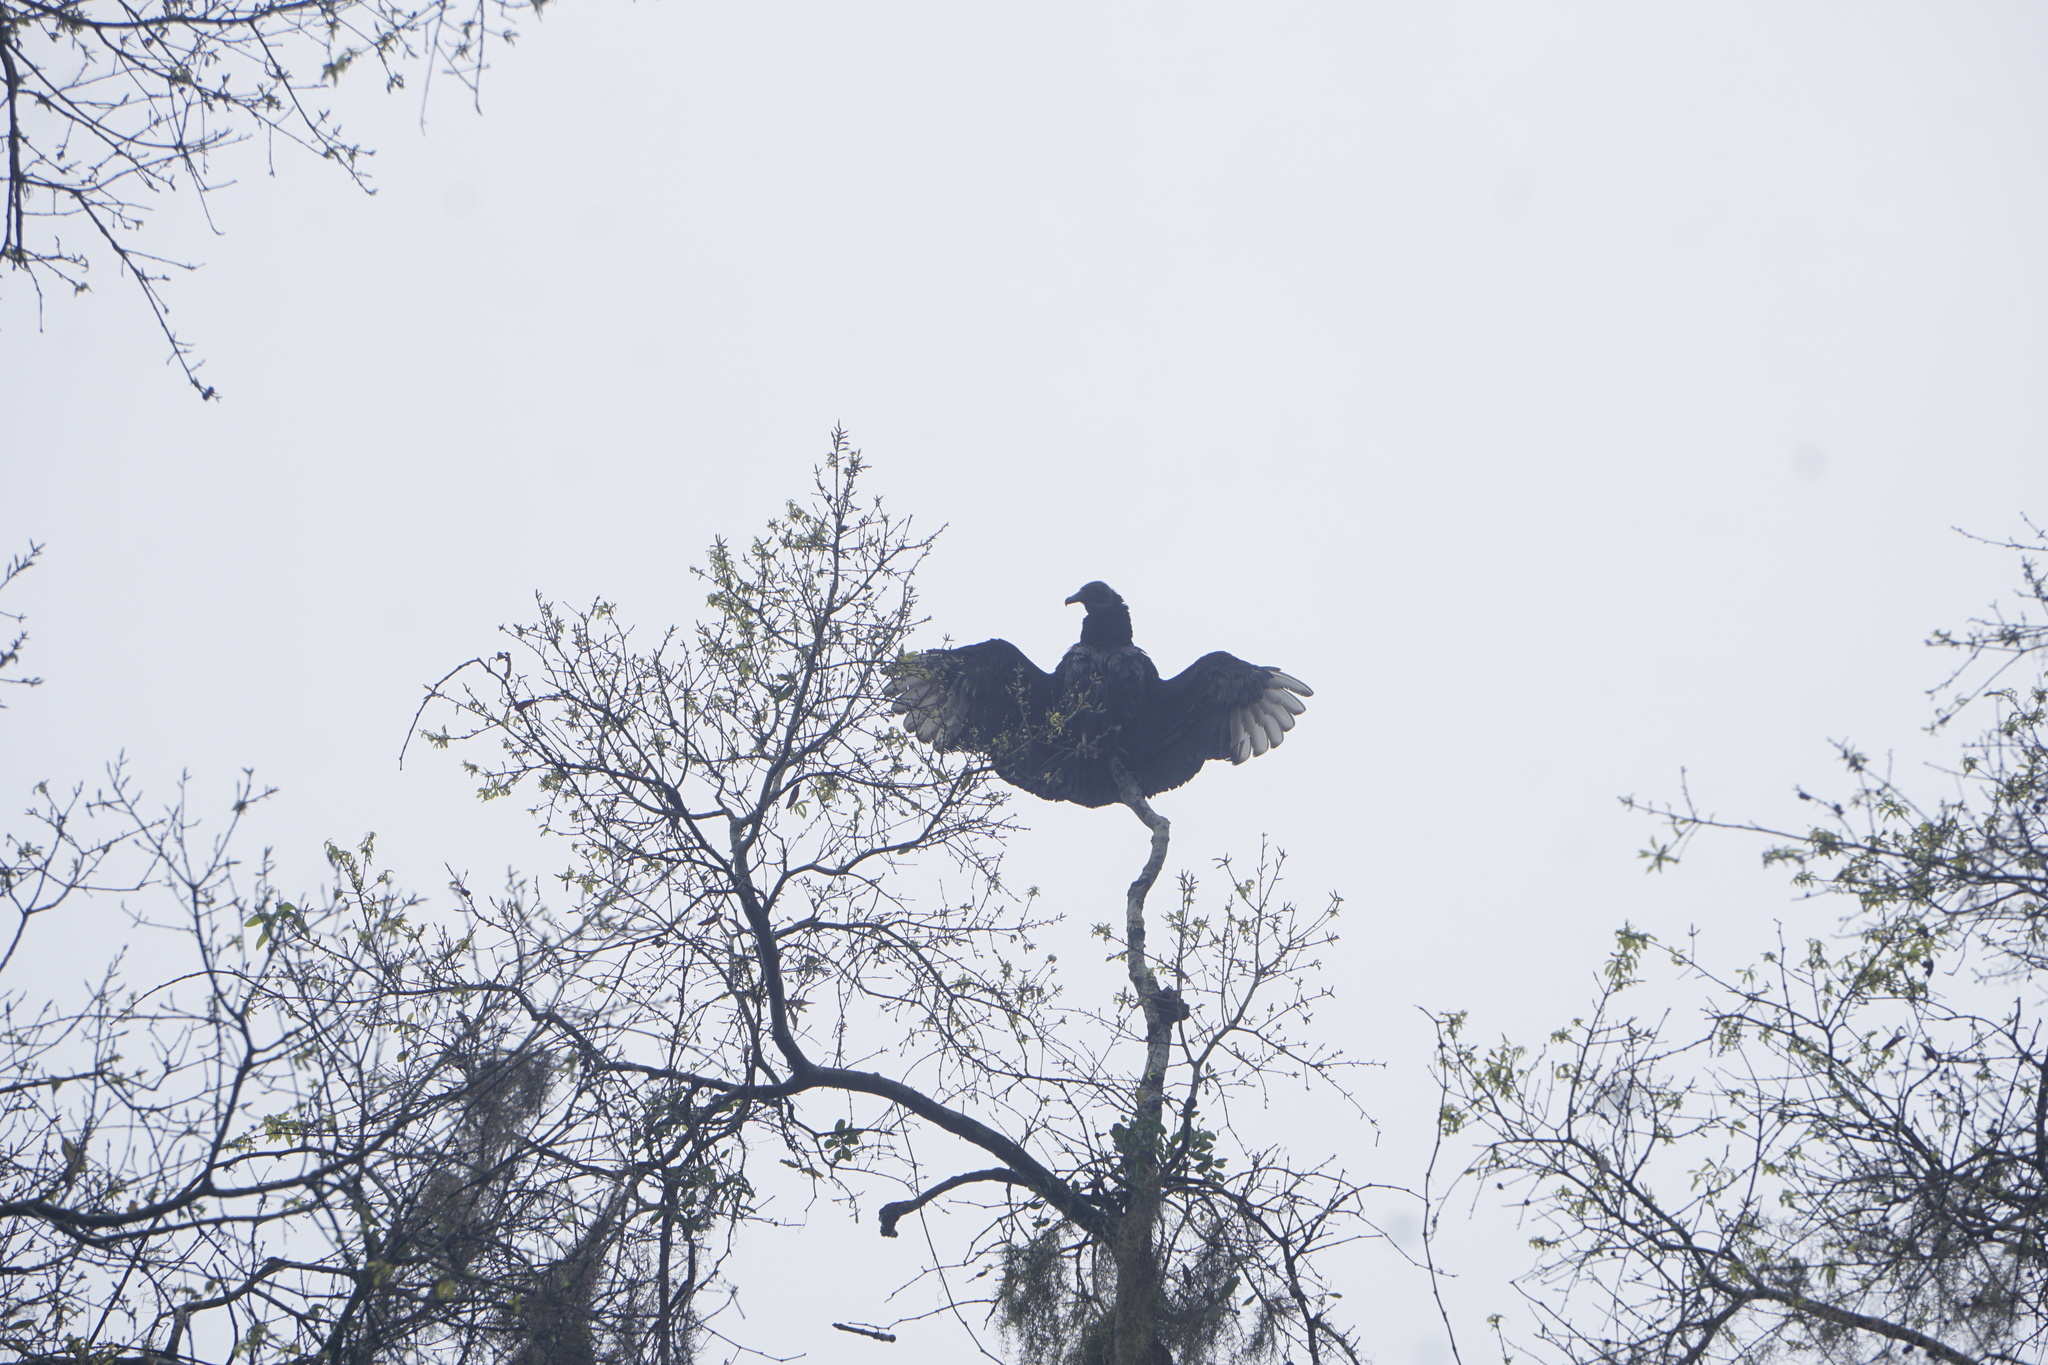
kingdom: Animalia
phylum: Chordata
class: Aves
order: Accipitriformes
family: Cathartidae
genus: Coragyps
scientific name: Coragyps atratus
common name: Black vulture
